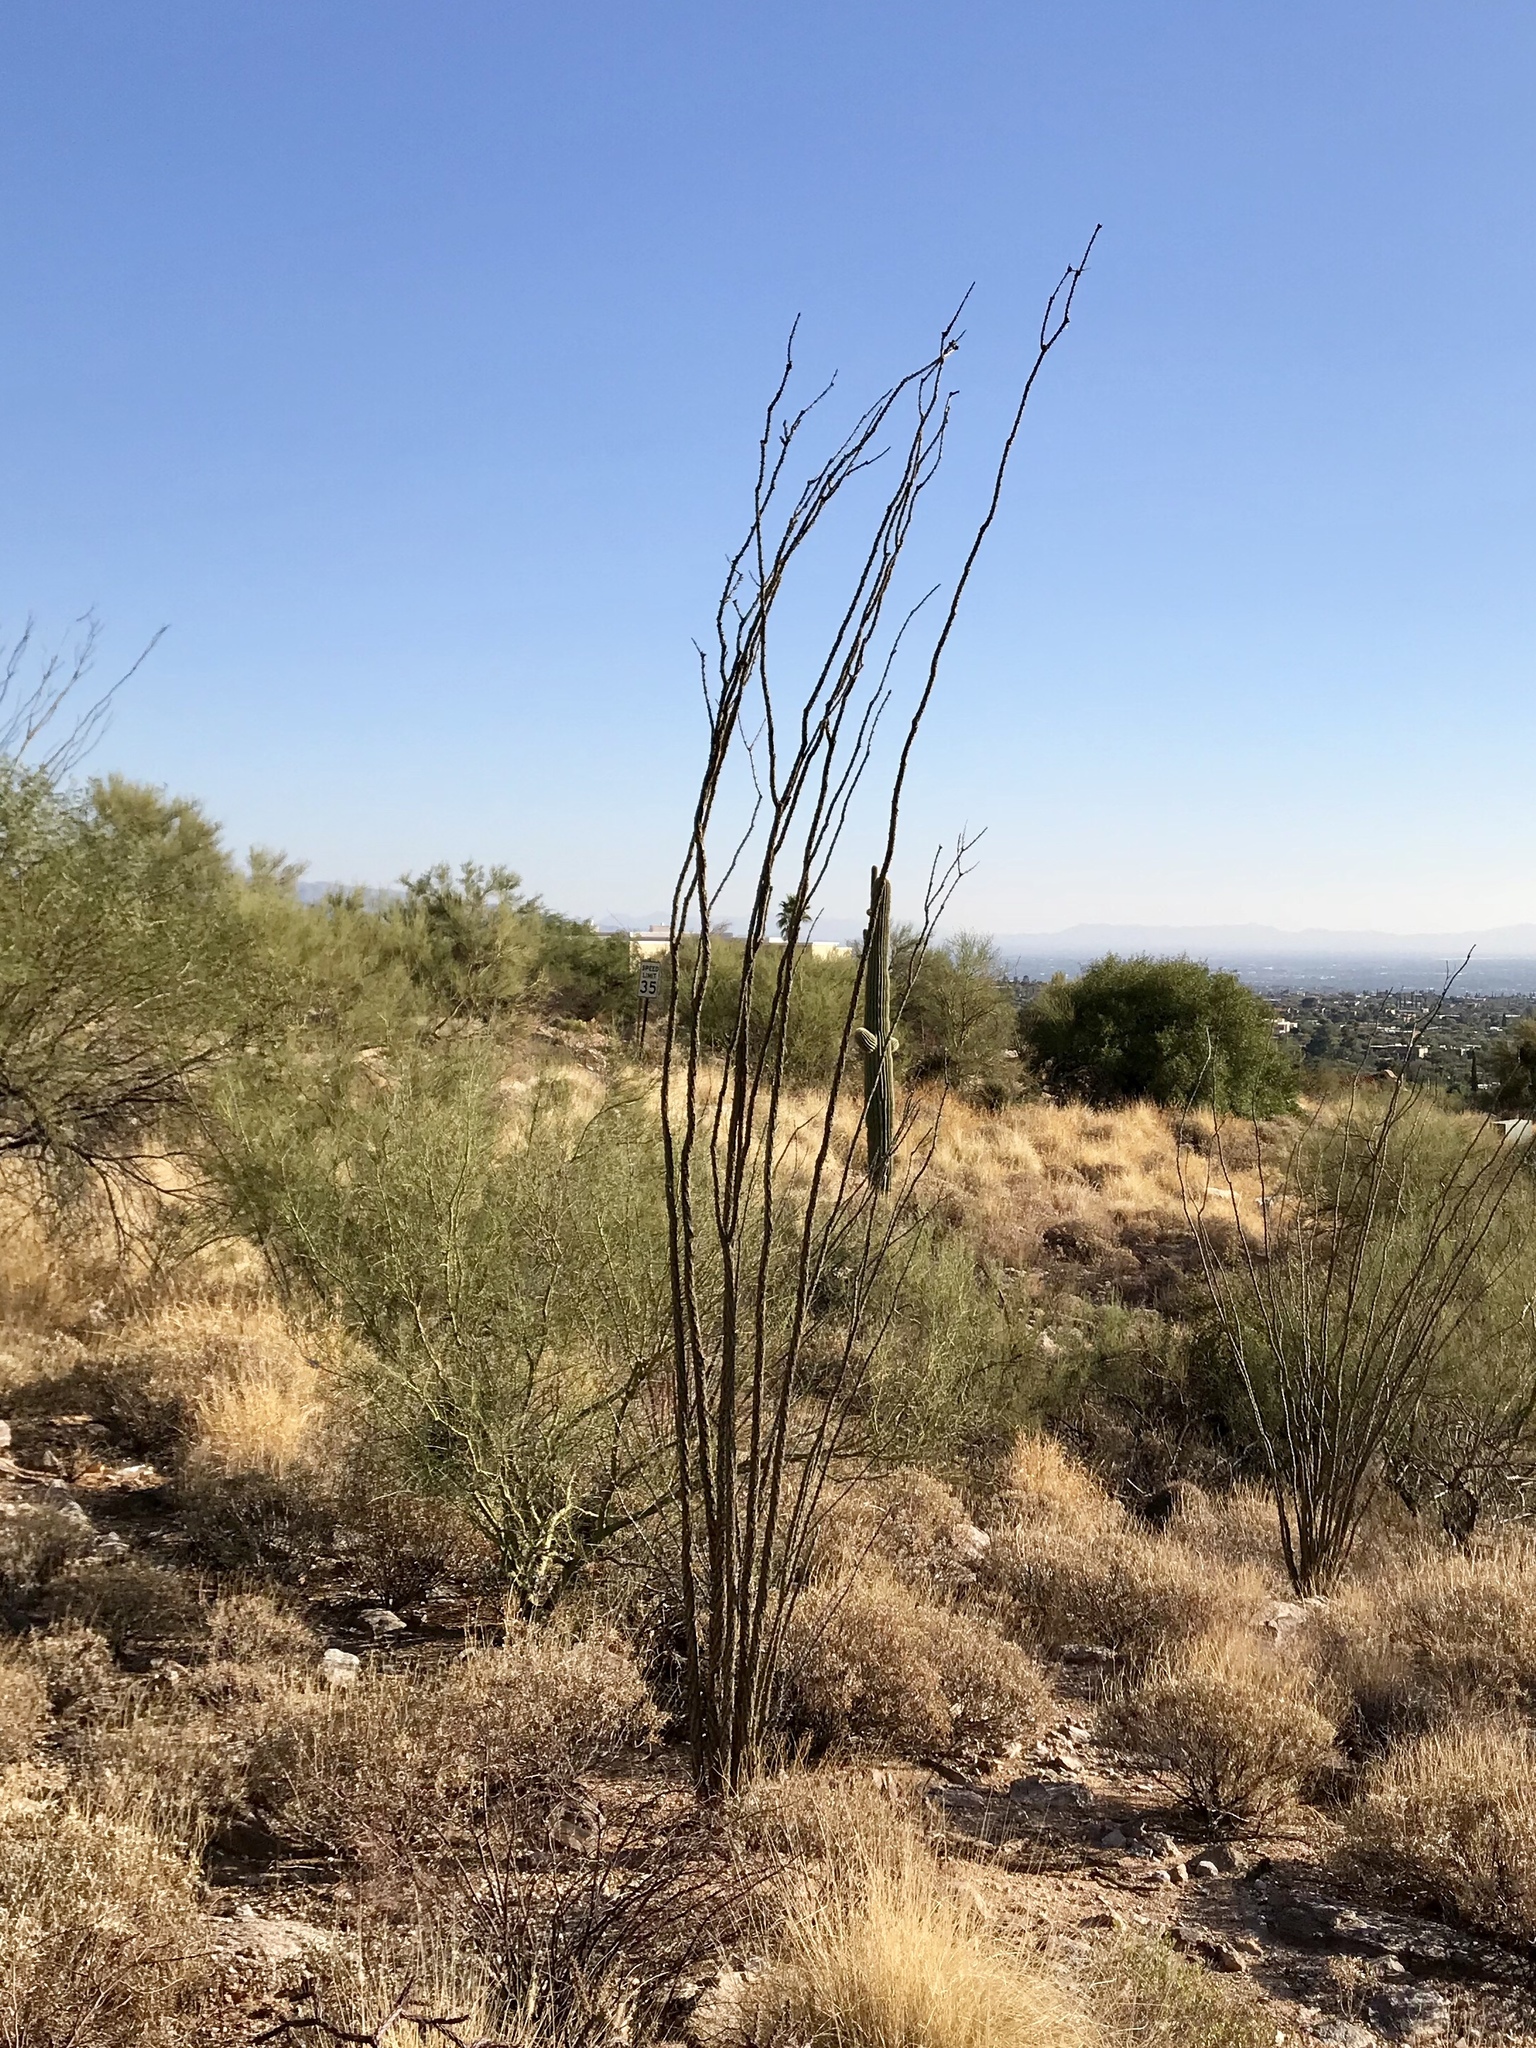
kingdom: Plantae
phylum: Tracheophyta
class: Magnoliopsida
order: Ericales
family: Fouquieriaceae
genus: Fouquieria
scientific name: Fouquieria splendens
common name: Vine-cactus
